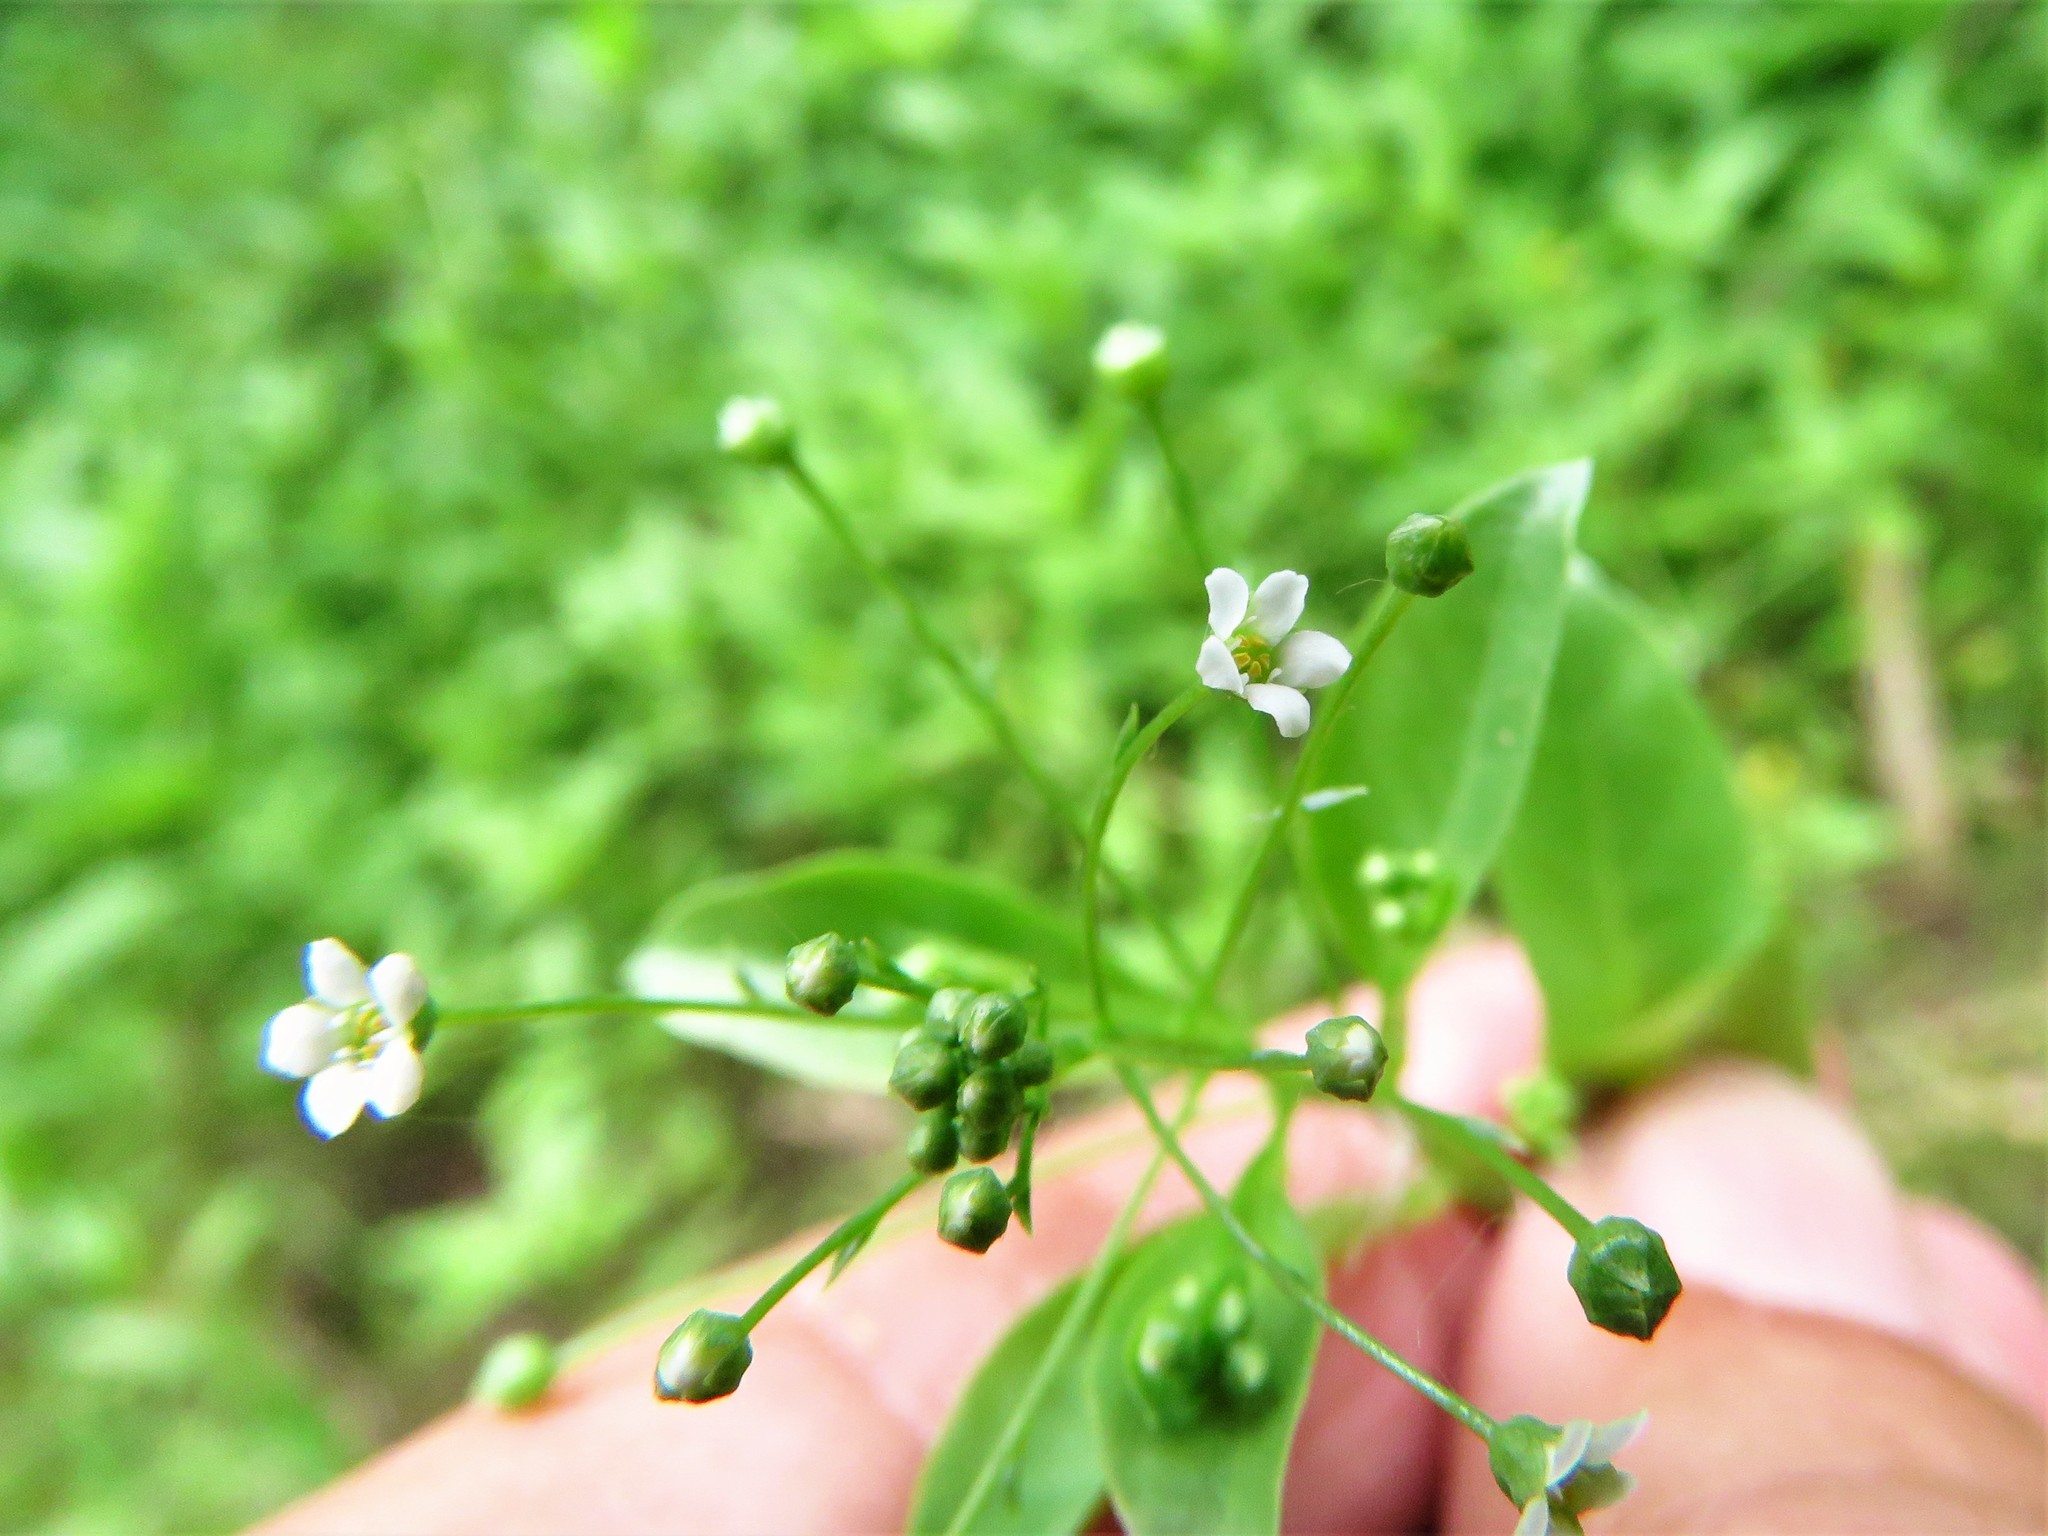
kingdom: Plantae
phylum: Tracheophyta
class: Magnoliopsida
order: Ericales
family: Primulaceae
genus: Samolus
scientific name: Samolus parviflorus
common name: False water pimpernel
